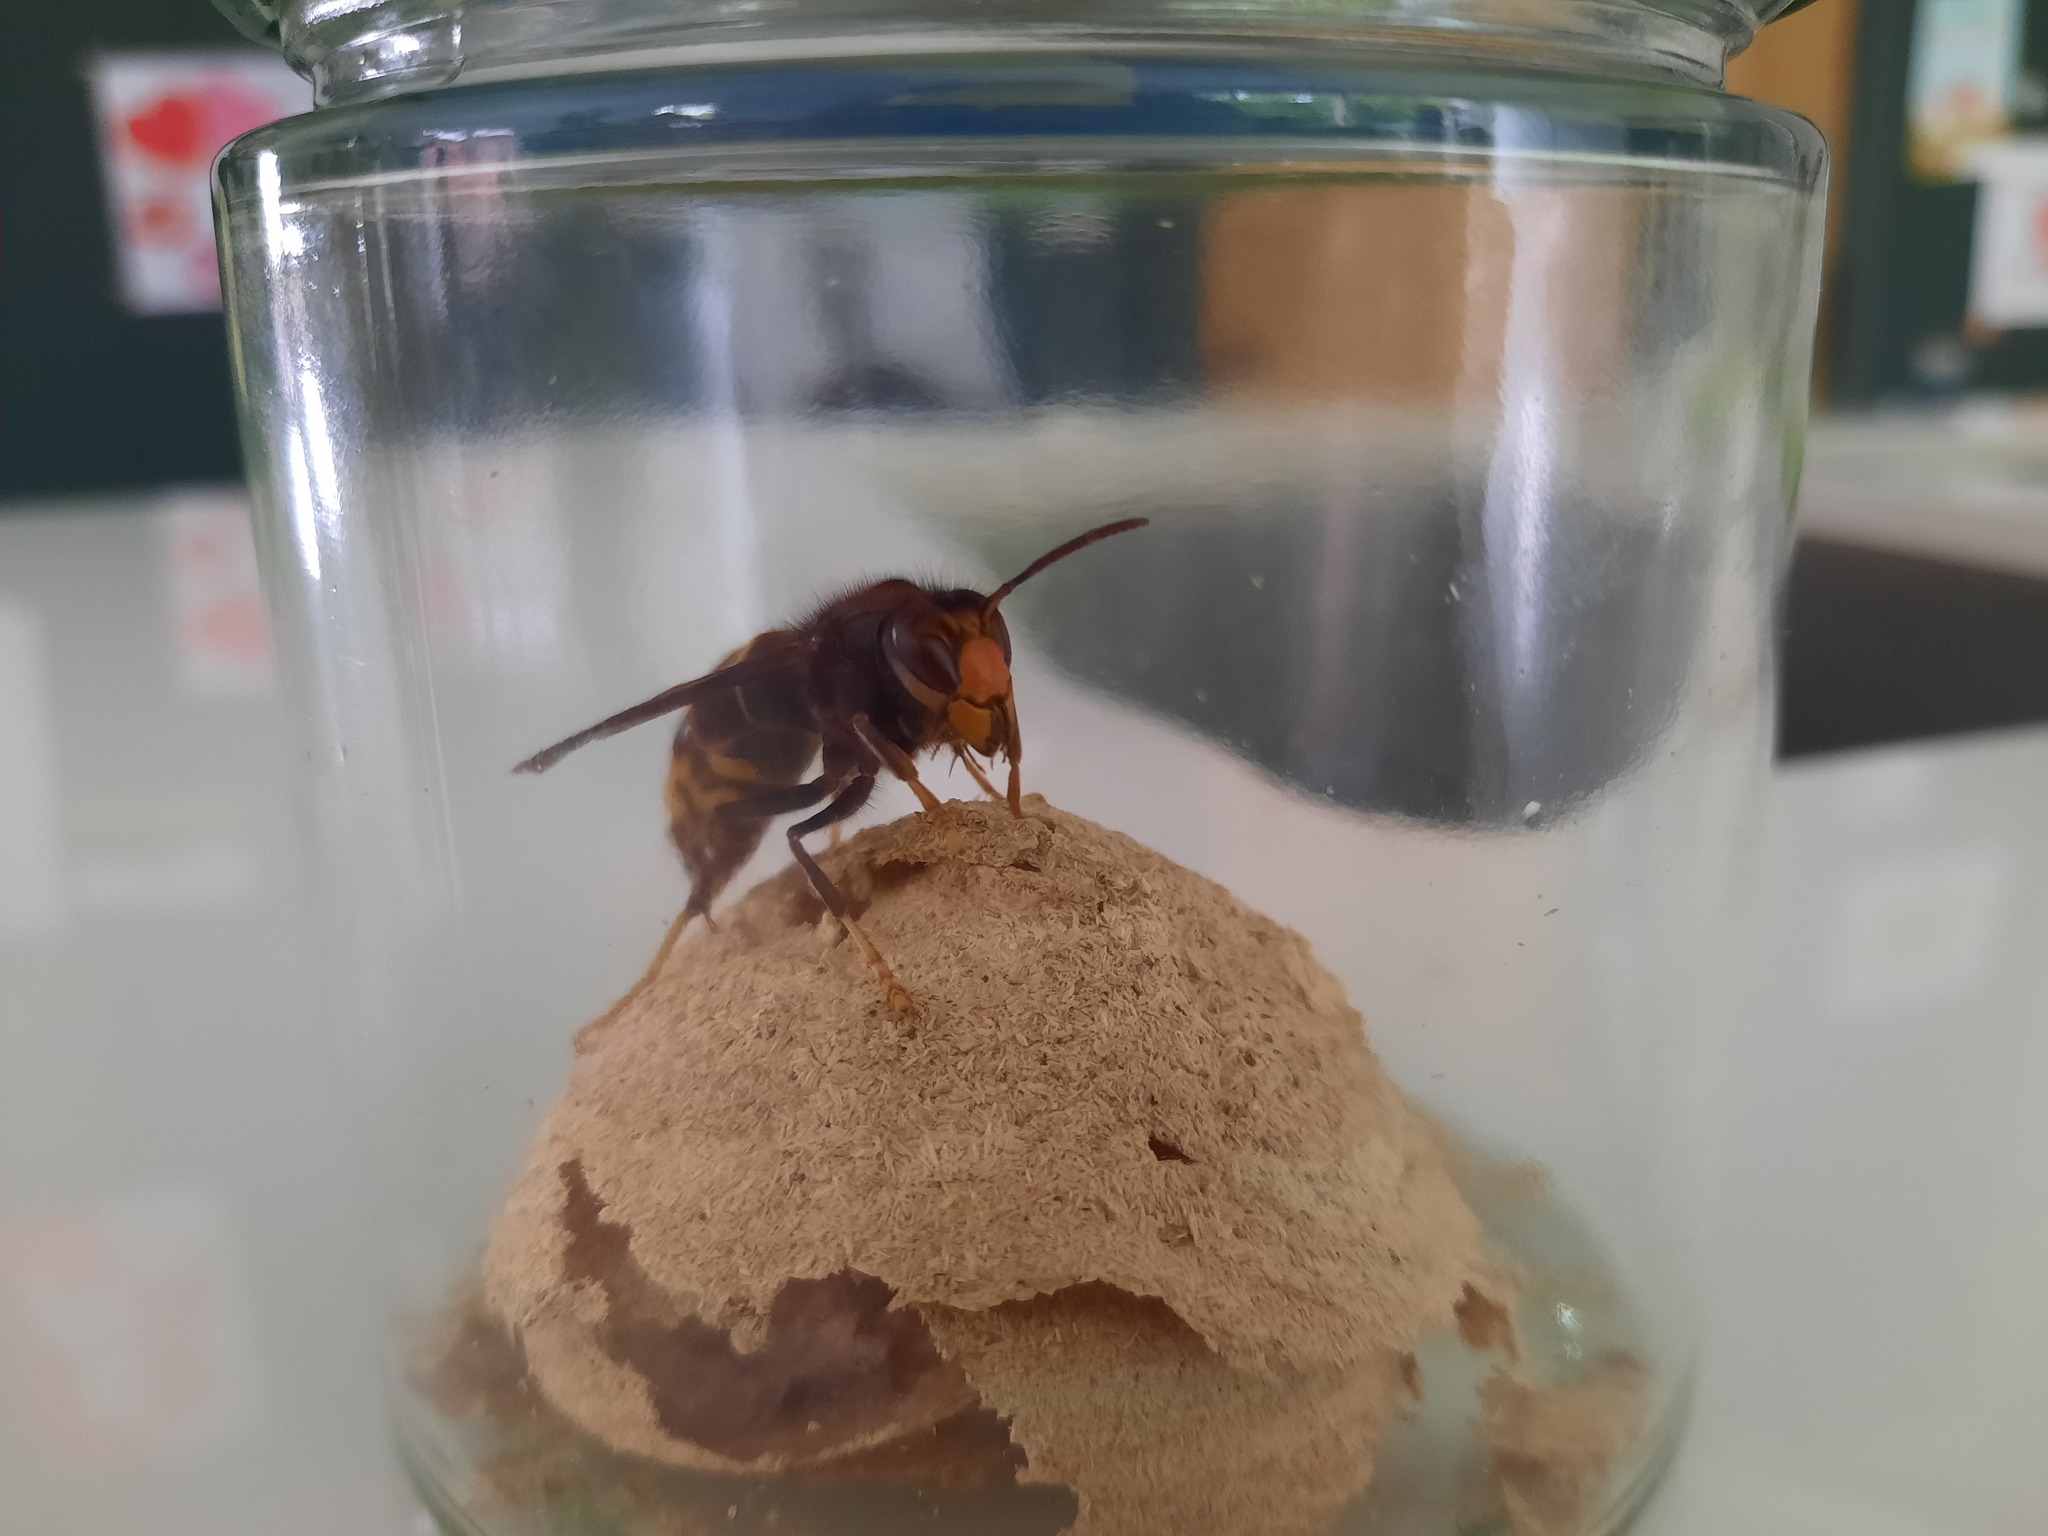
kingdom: Animalia
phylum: Arthropoda
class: Insecta
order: Hymenoptera
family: Vespidae
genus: Vespa
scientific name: Vespa velutina
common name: Asian hornet
